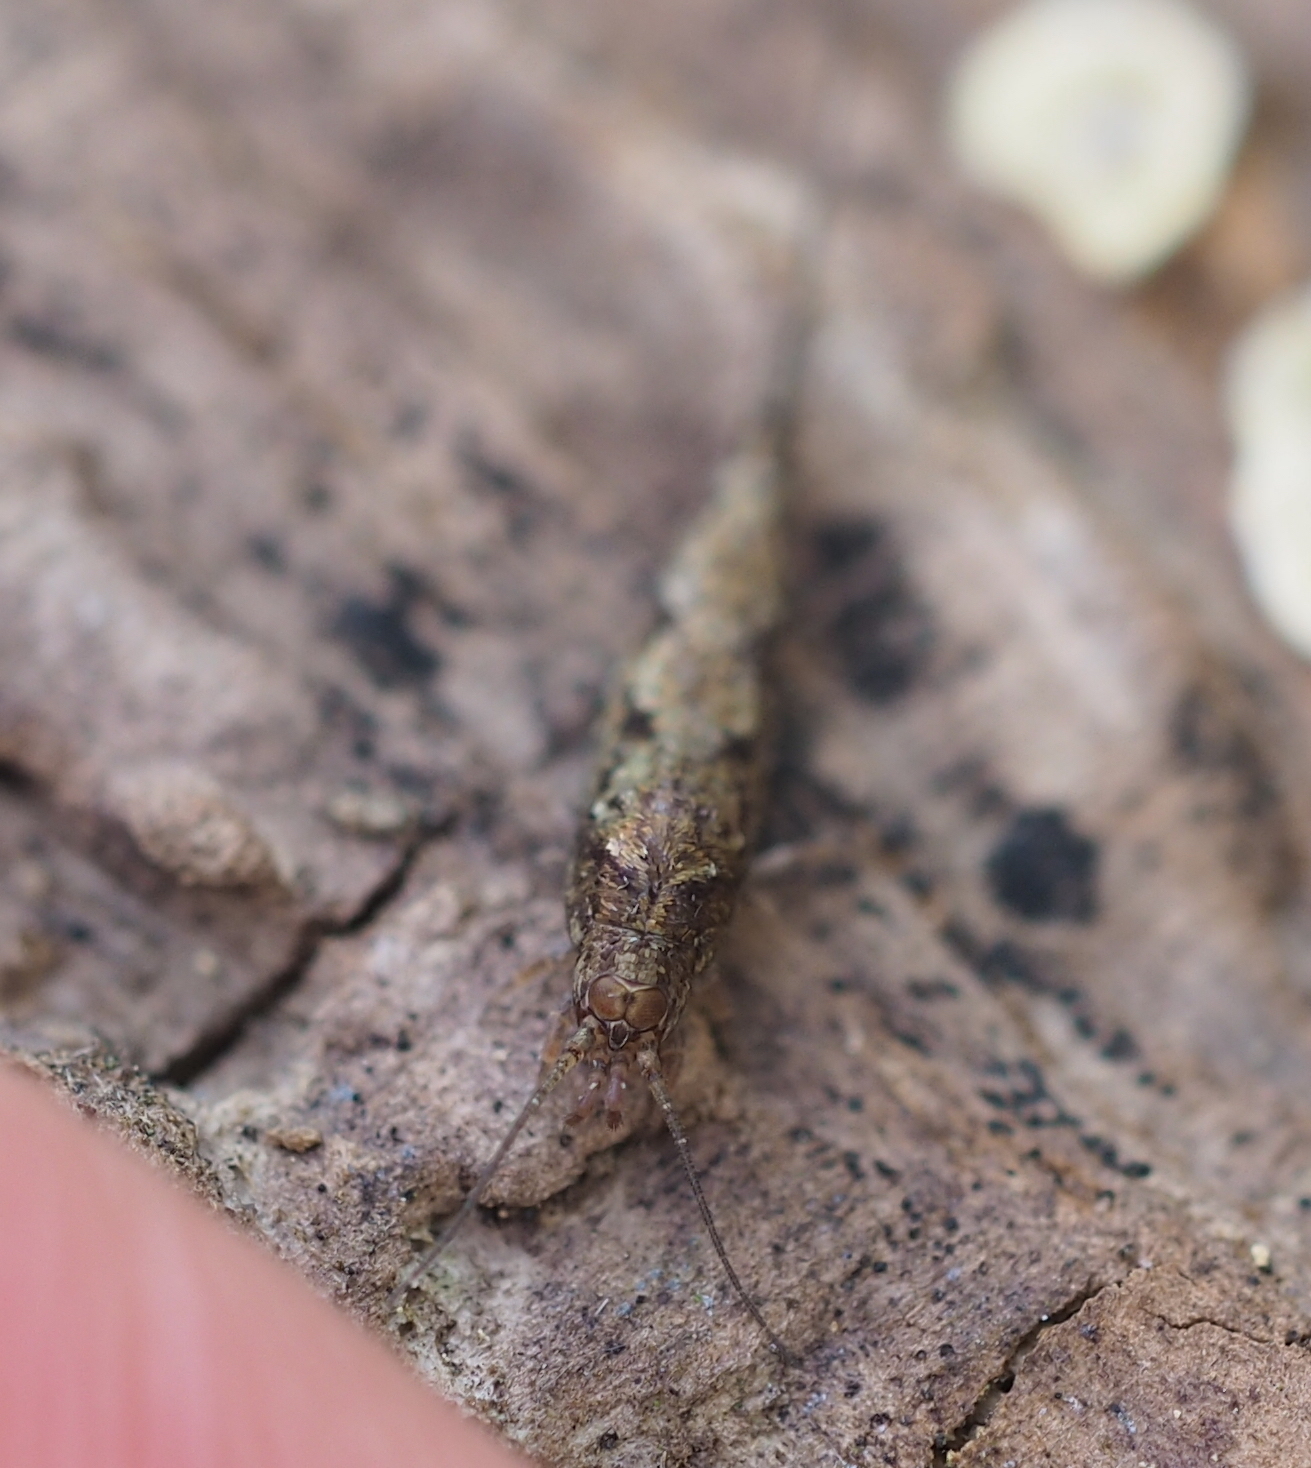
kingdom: Animalia
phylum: Arthropoda
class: Insecta
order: Archaeognatha
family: Machilidae
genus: Lepismachilis
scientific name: Lepismachilis rozsypali
